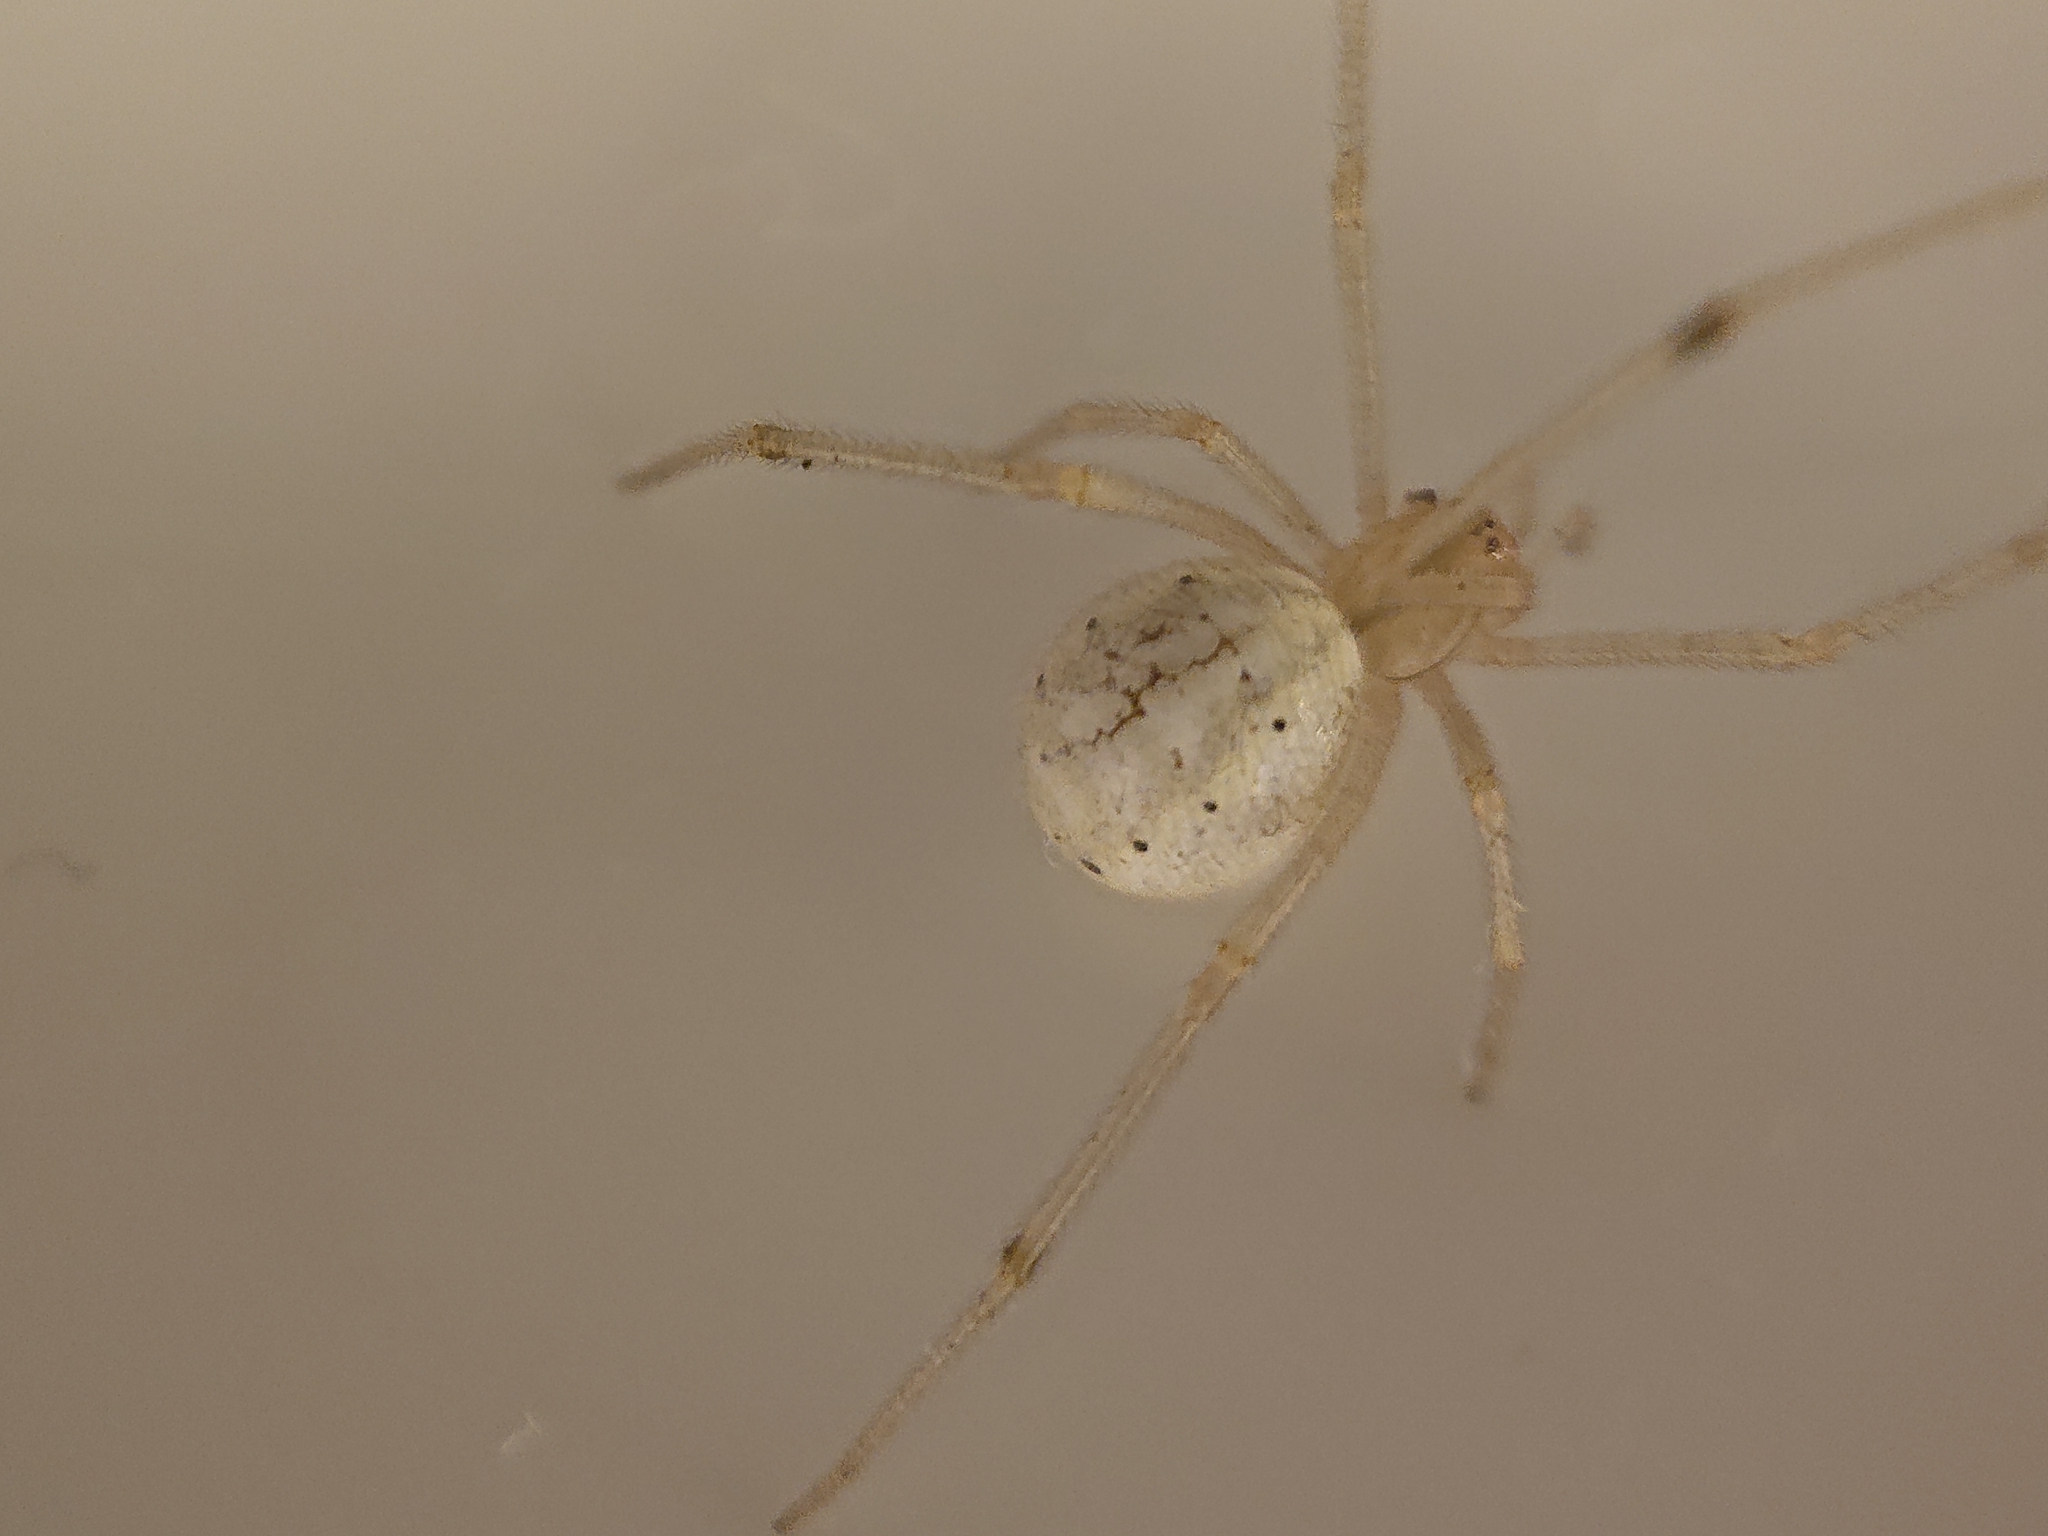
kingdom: Animalia
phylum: Arthropoda
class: Arachnida
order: Araneae
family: Theridiidae
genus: Enoplognatha
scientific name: Enoplognatha ovata
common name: Common candy-striped spider
